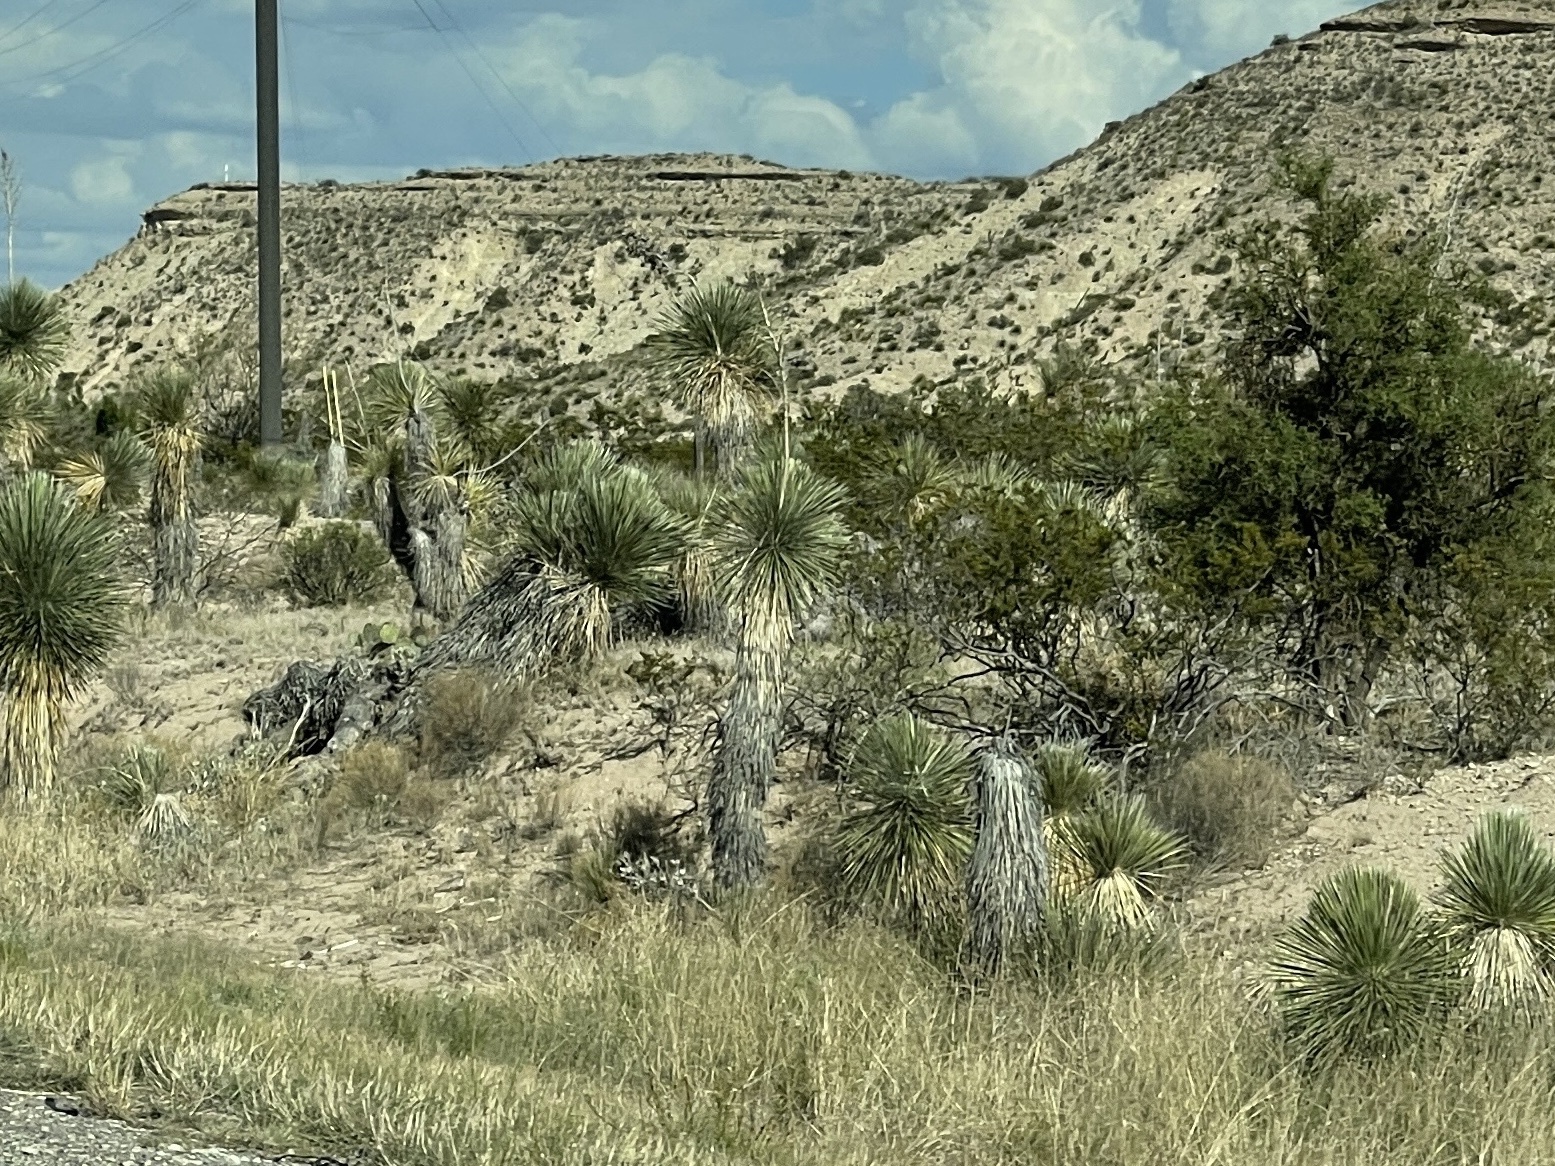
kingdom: Plantae
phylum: Tracheophyta
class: Liliopsida
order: Asparagales
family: Asparagaceae
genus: Yucca
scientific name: Yucca elata
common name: Palmella
